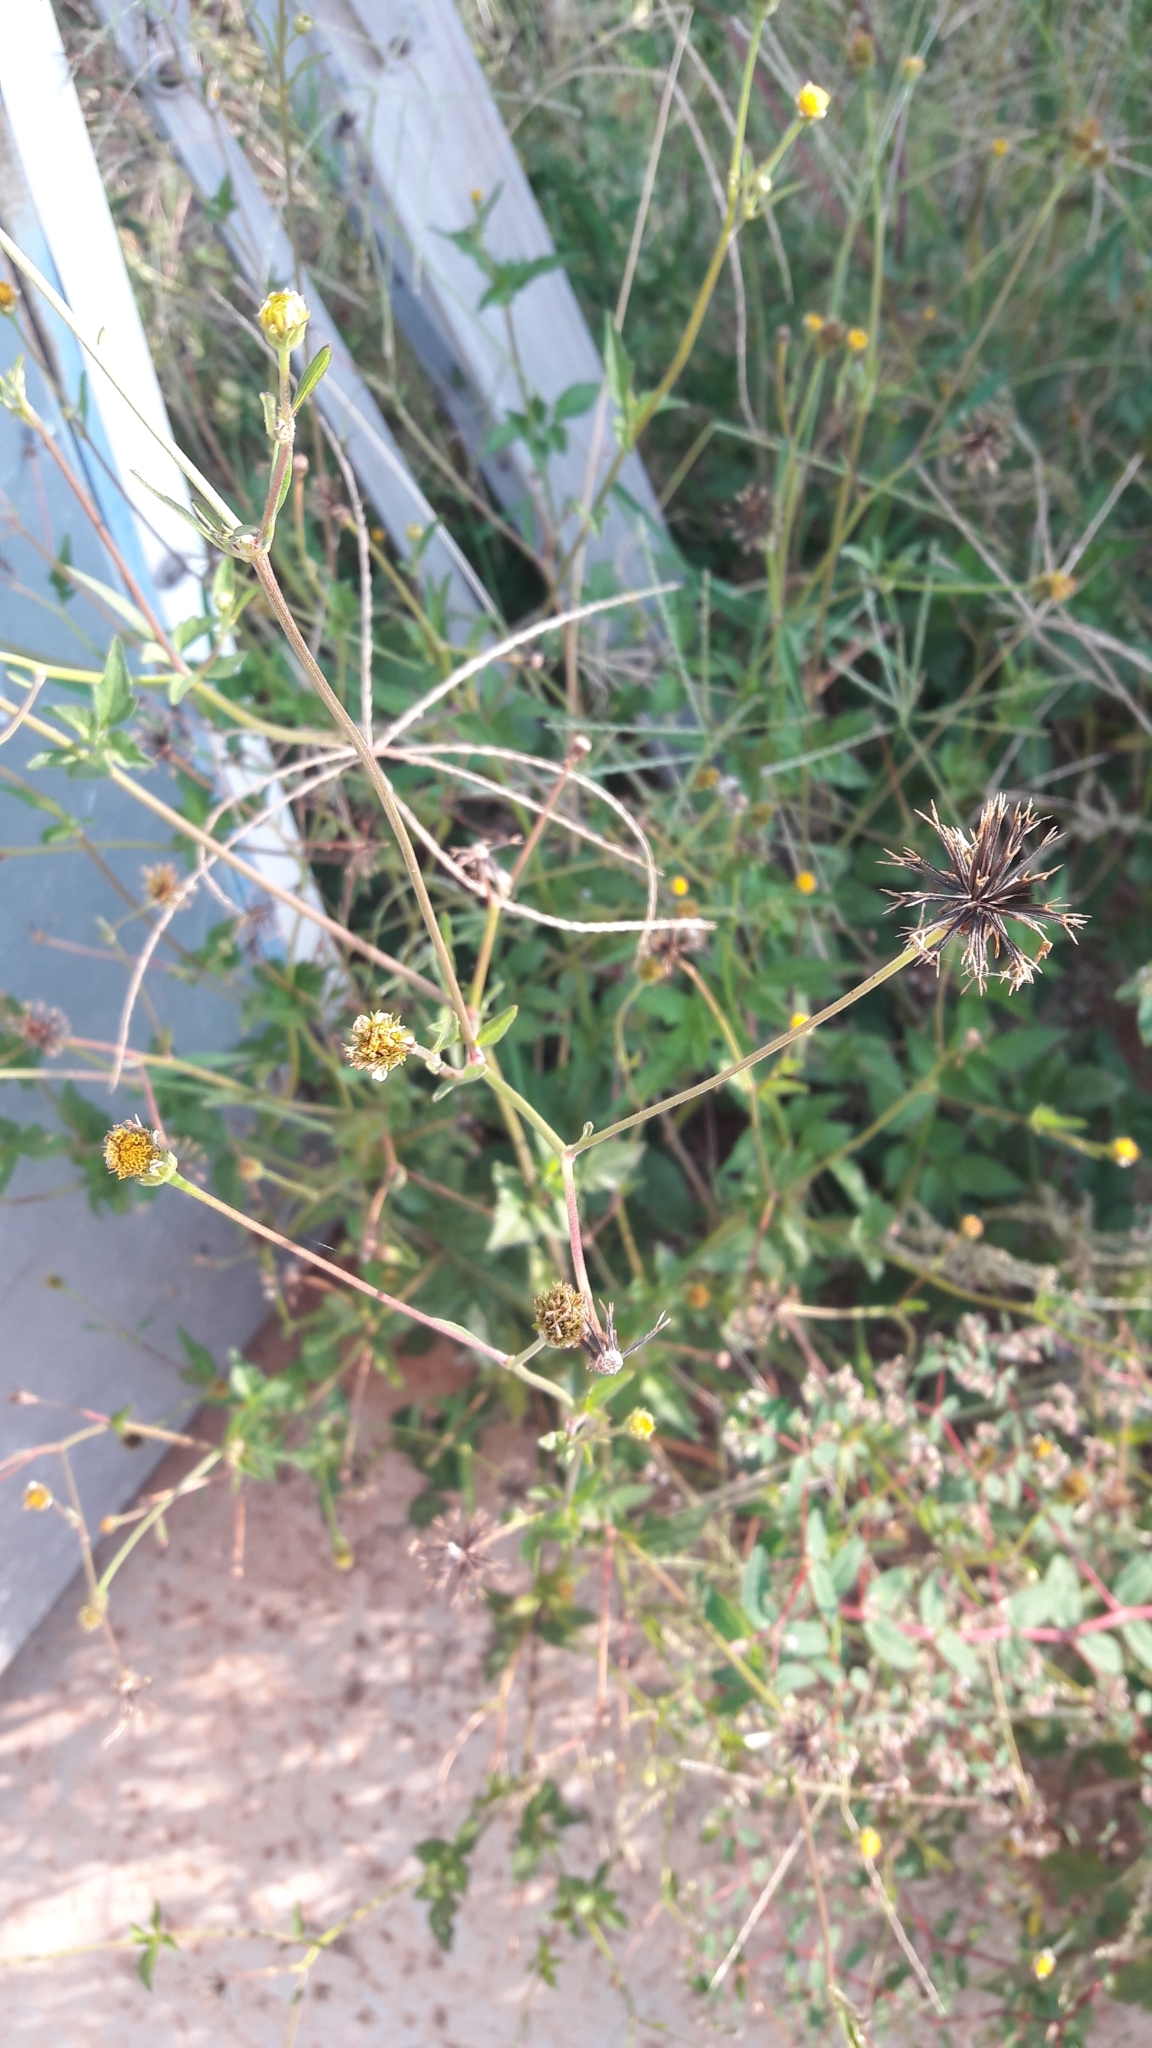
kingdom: Plantae
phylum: Tracheophyta
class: Magnoliopsida
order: Asterales
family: Asteraceae
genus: Bidens
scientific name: Bidens pilosa
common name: Black-jack
